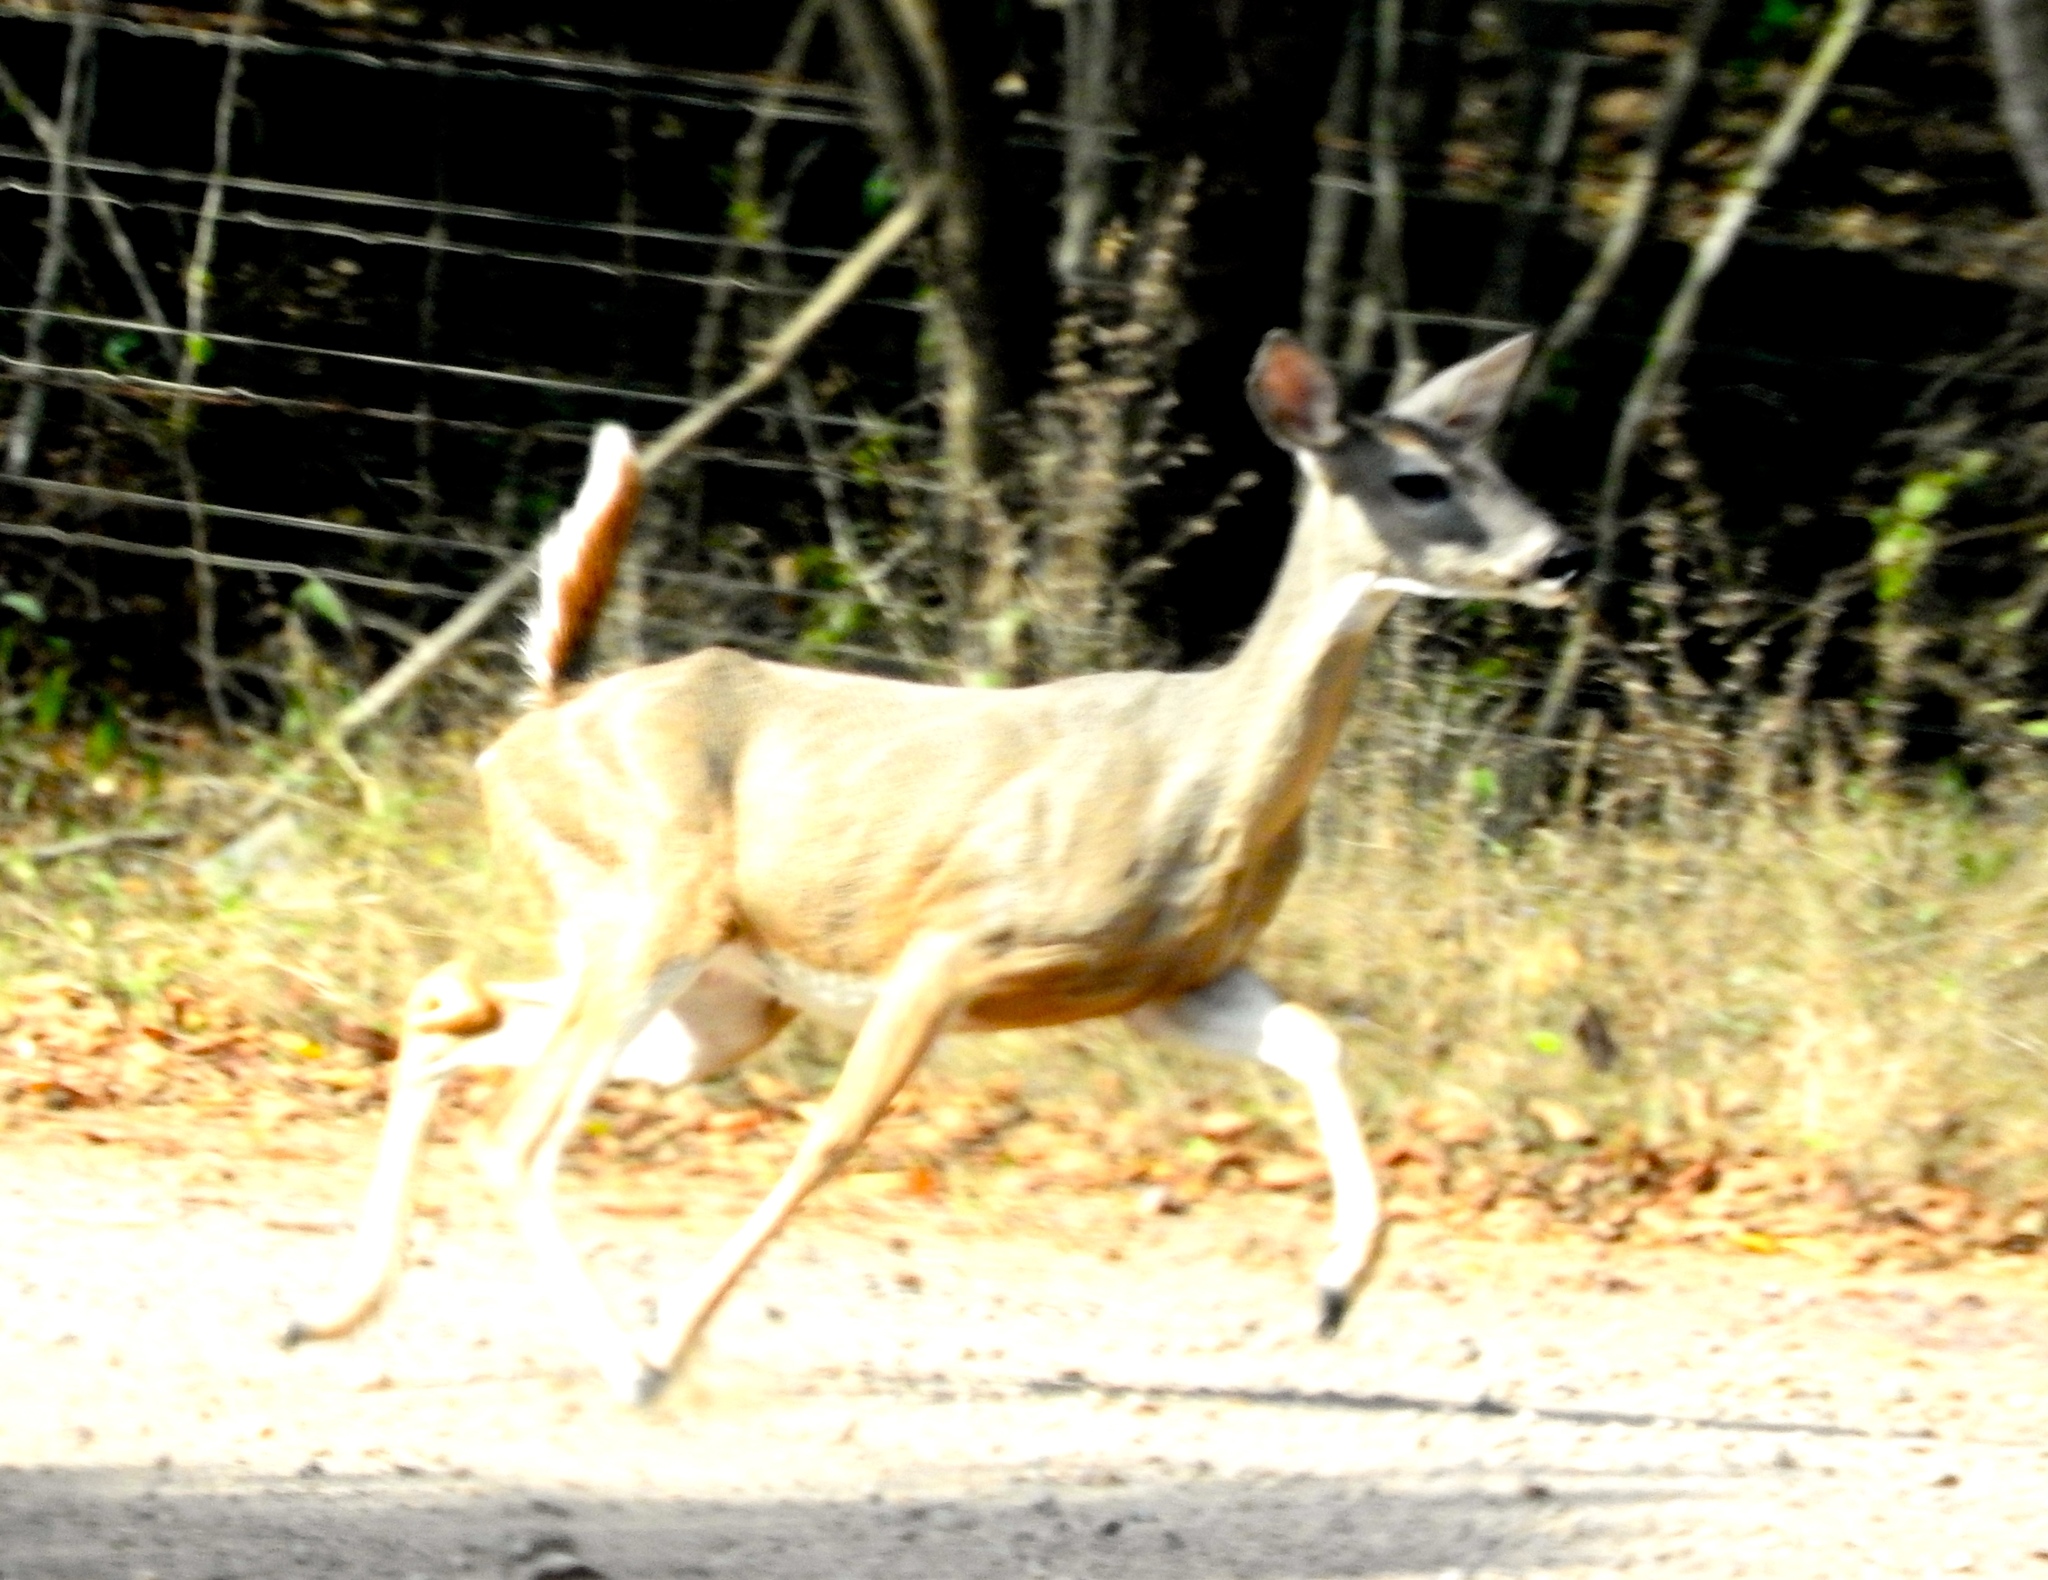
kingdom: Animalia
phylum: Chordata
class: Mammalia
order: Artiodactyla
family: Cervidae
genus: Odocoileus
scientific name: Odocoileus virginianus
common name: White-tailed deer
